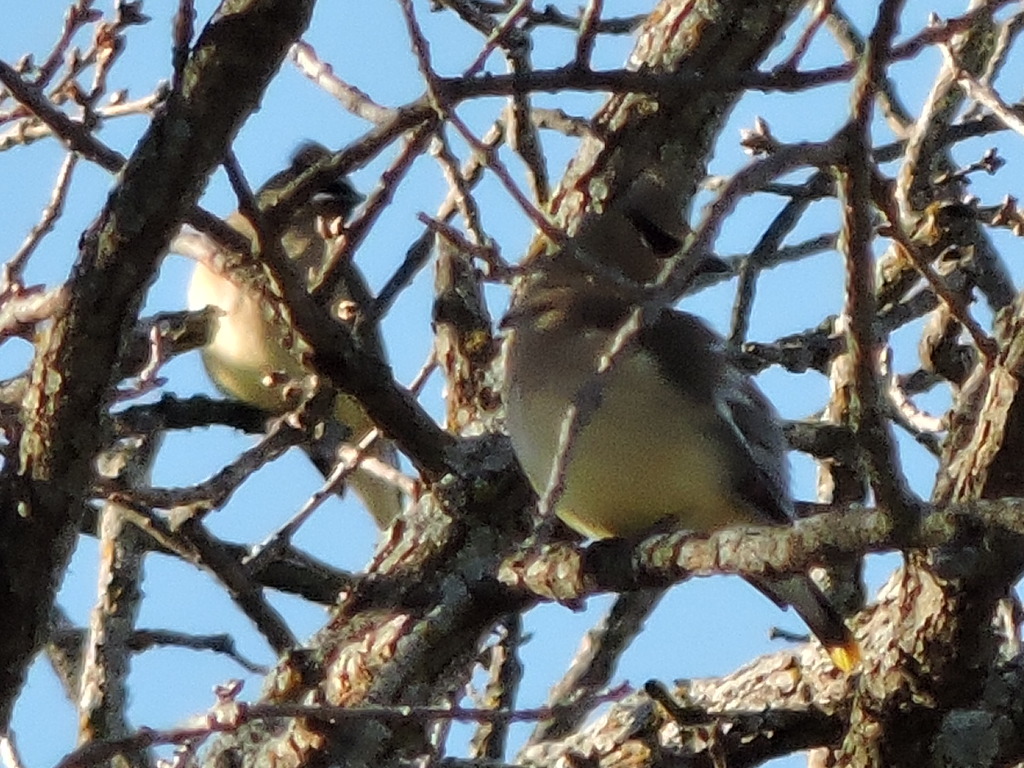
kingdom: Animalia
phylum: Chordata
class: Aves
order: Passeriformes
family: Bombycillidae
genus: Bombycilla
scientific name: Bombycilla cedrorum
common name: Cedar waxwing
